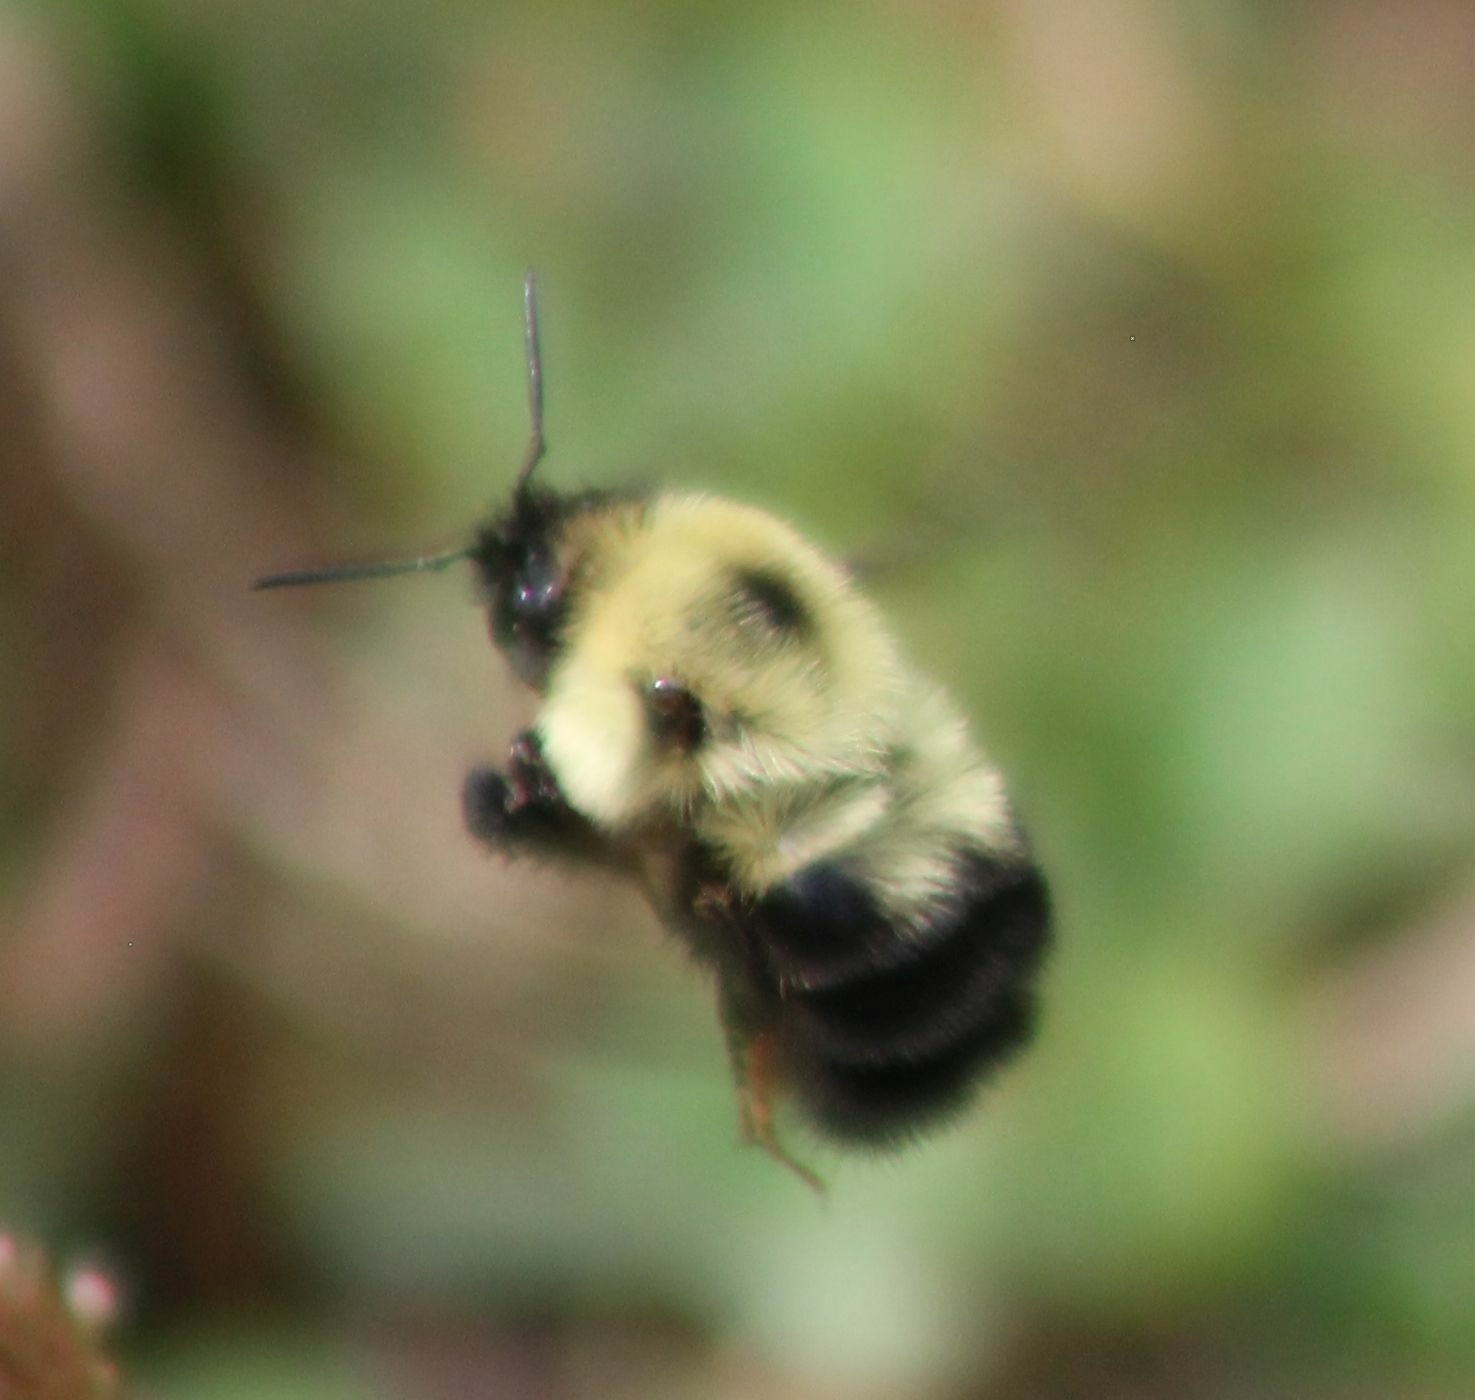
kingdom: Animalia
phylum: Arthropoda
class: Insecta
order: Hymenoptera
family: Apidae
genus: Bombus
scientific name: Bombus bimaculatus
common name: Two-spotted bumble bee
